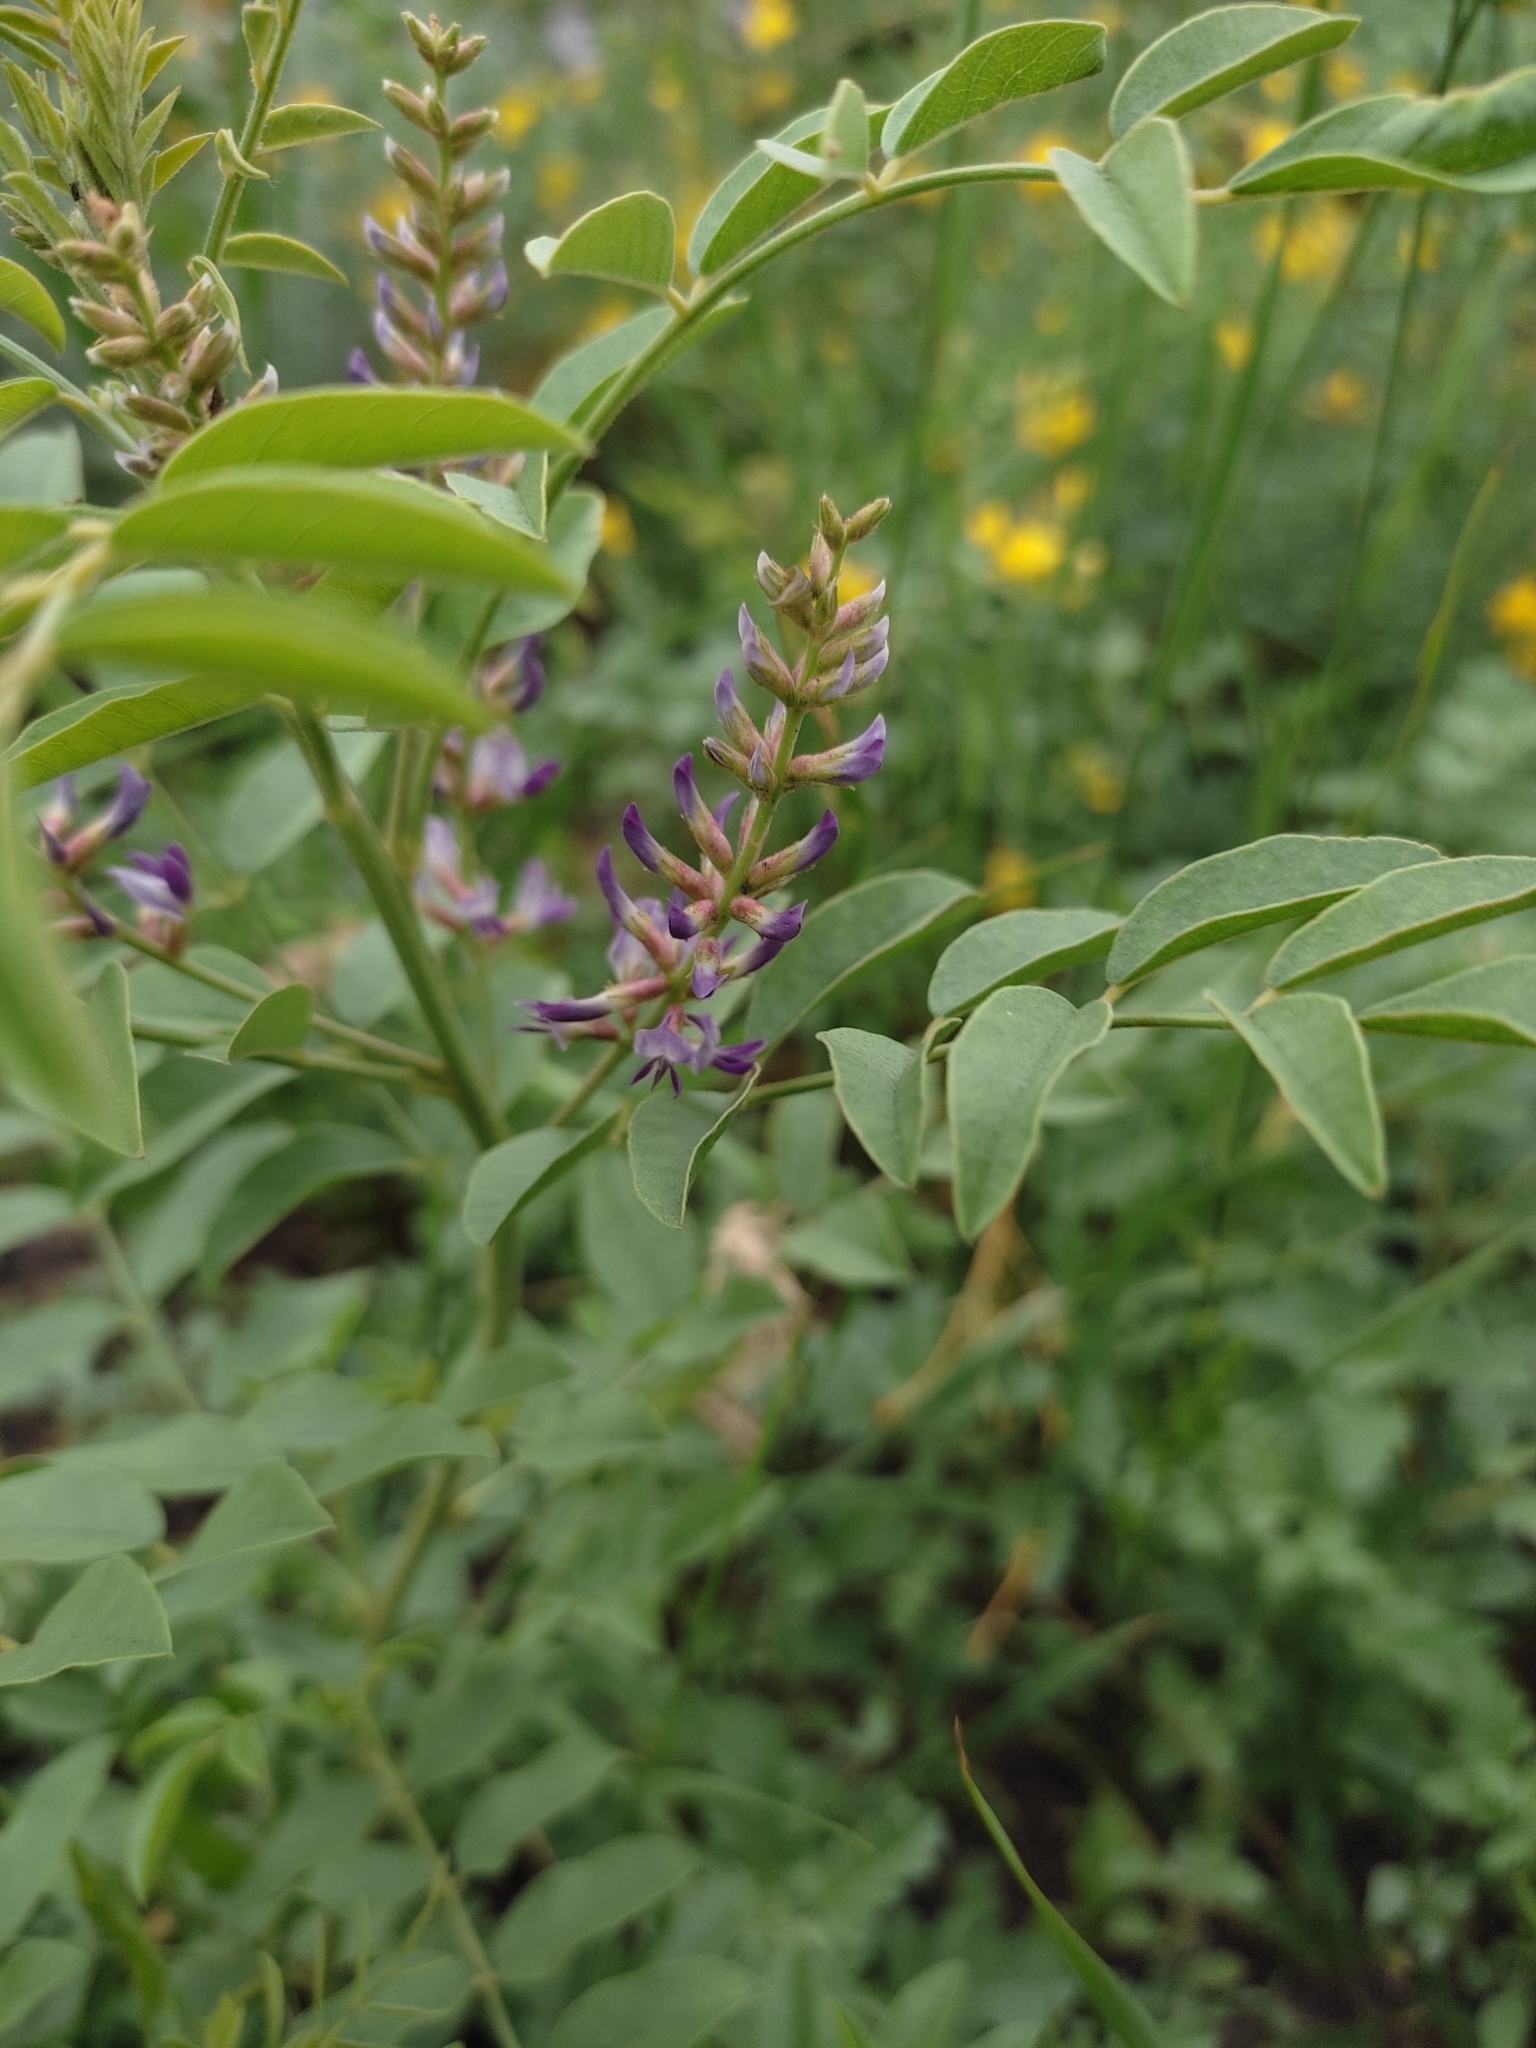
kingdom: Plantae
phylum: Tracheophyta
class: Magnoliopsida
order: Fabales
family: Fabaceae
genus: Glycyrrhiza
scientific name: Glycyrrhiza glabra
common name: Liquorice
